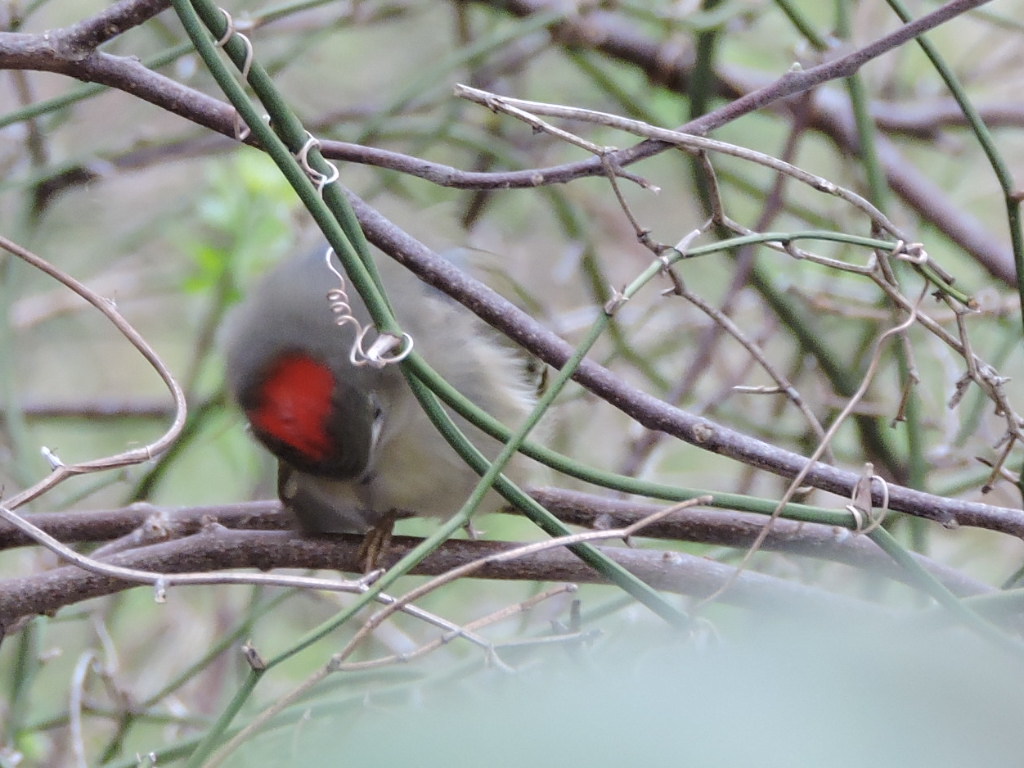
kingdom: Animalia
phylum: Chordata
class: Aves
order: Passeriformes
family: Regulidae
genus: Regulus
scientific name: Regulus calendula
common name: Ruby-crowned kinglet
